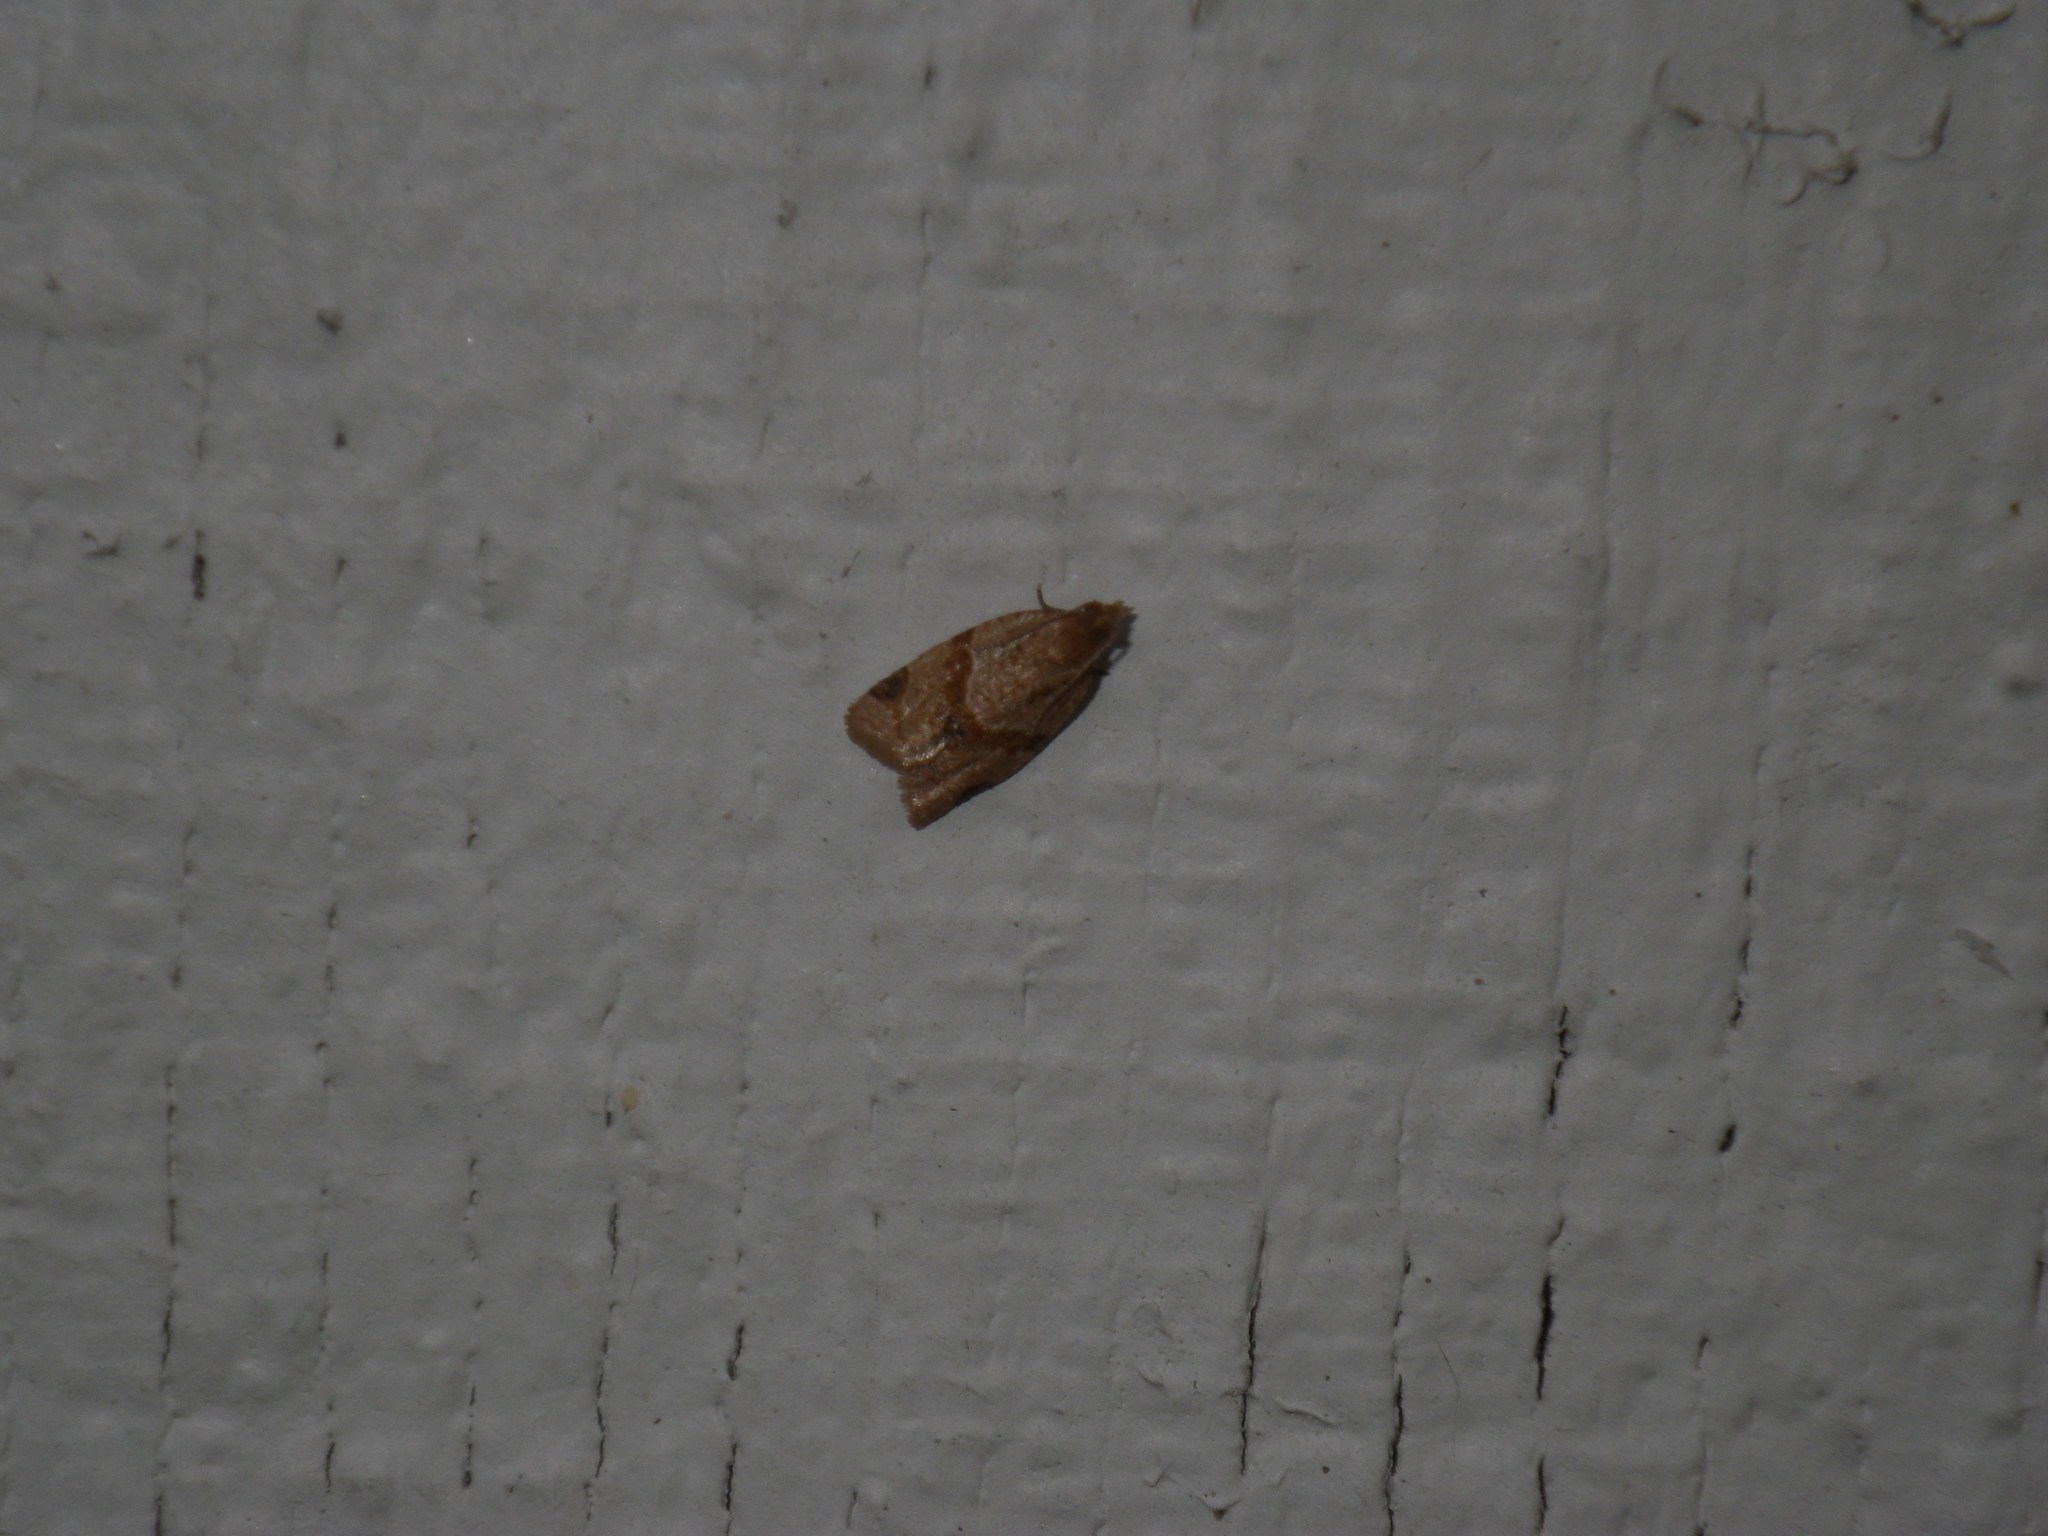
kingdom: Animalia
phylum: Arthropoda
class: Insecta
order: Lepidoptera
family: Tortricidae
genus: Clepsis
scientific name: Clepsis peritana
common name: Garden tortrix
